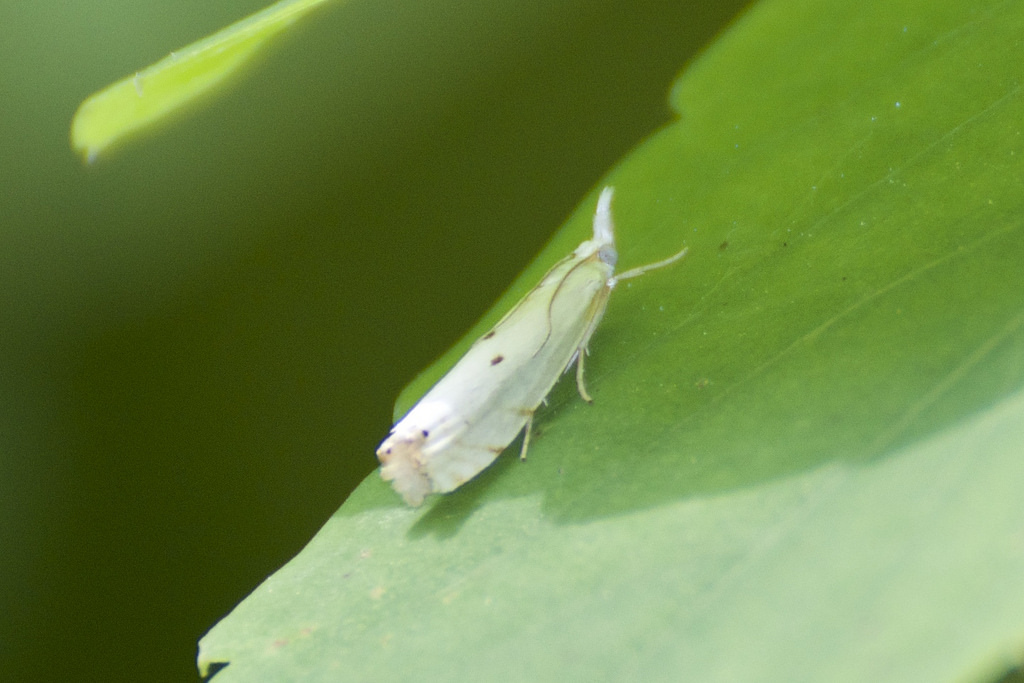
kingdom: Animalia
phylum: Arthropoda
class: Insecta
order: Lepidoptera
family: Crambidae
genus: Microcrambus
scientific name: Microcrambus biguttellus
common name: Gold-stripe grass-veneer moth
